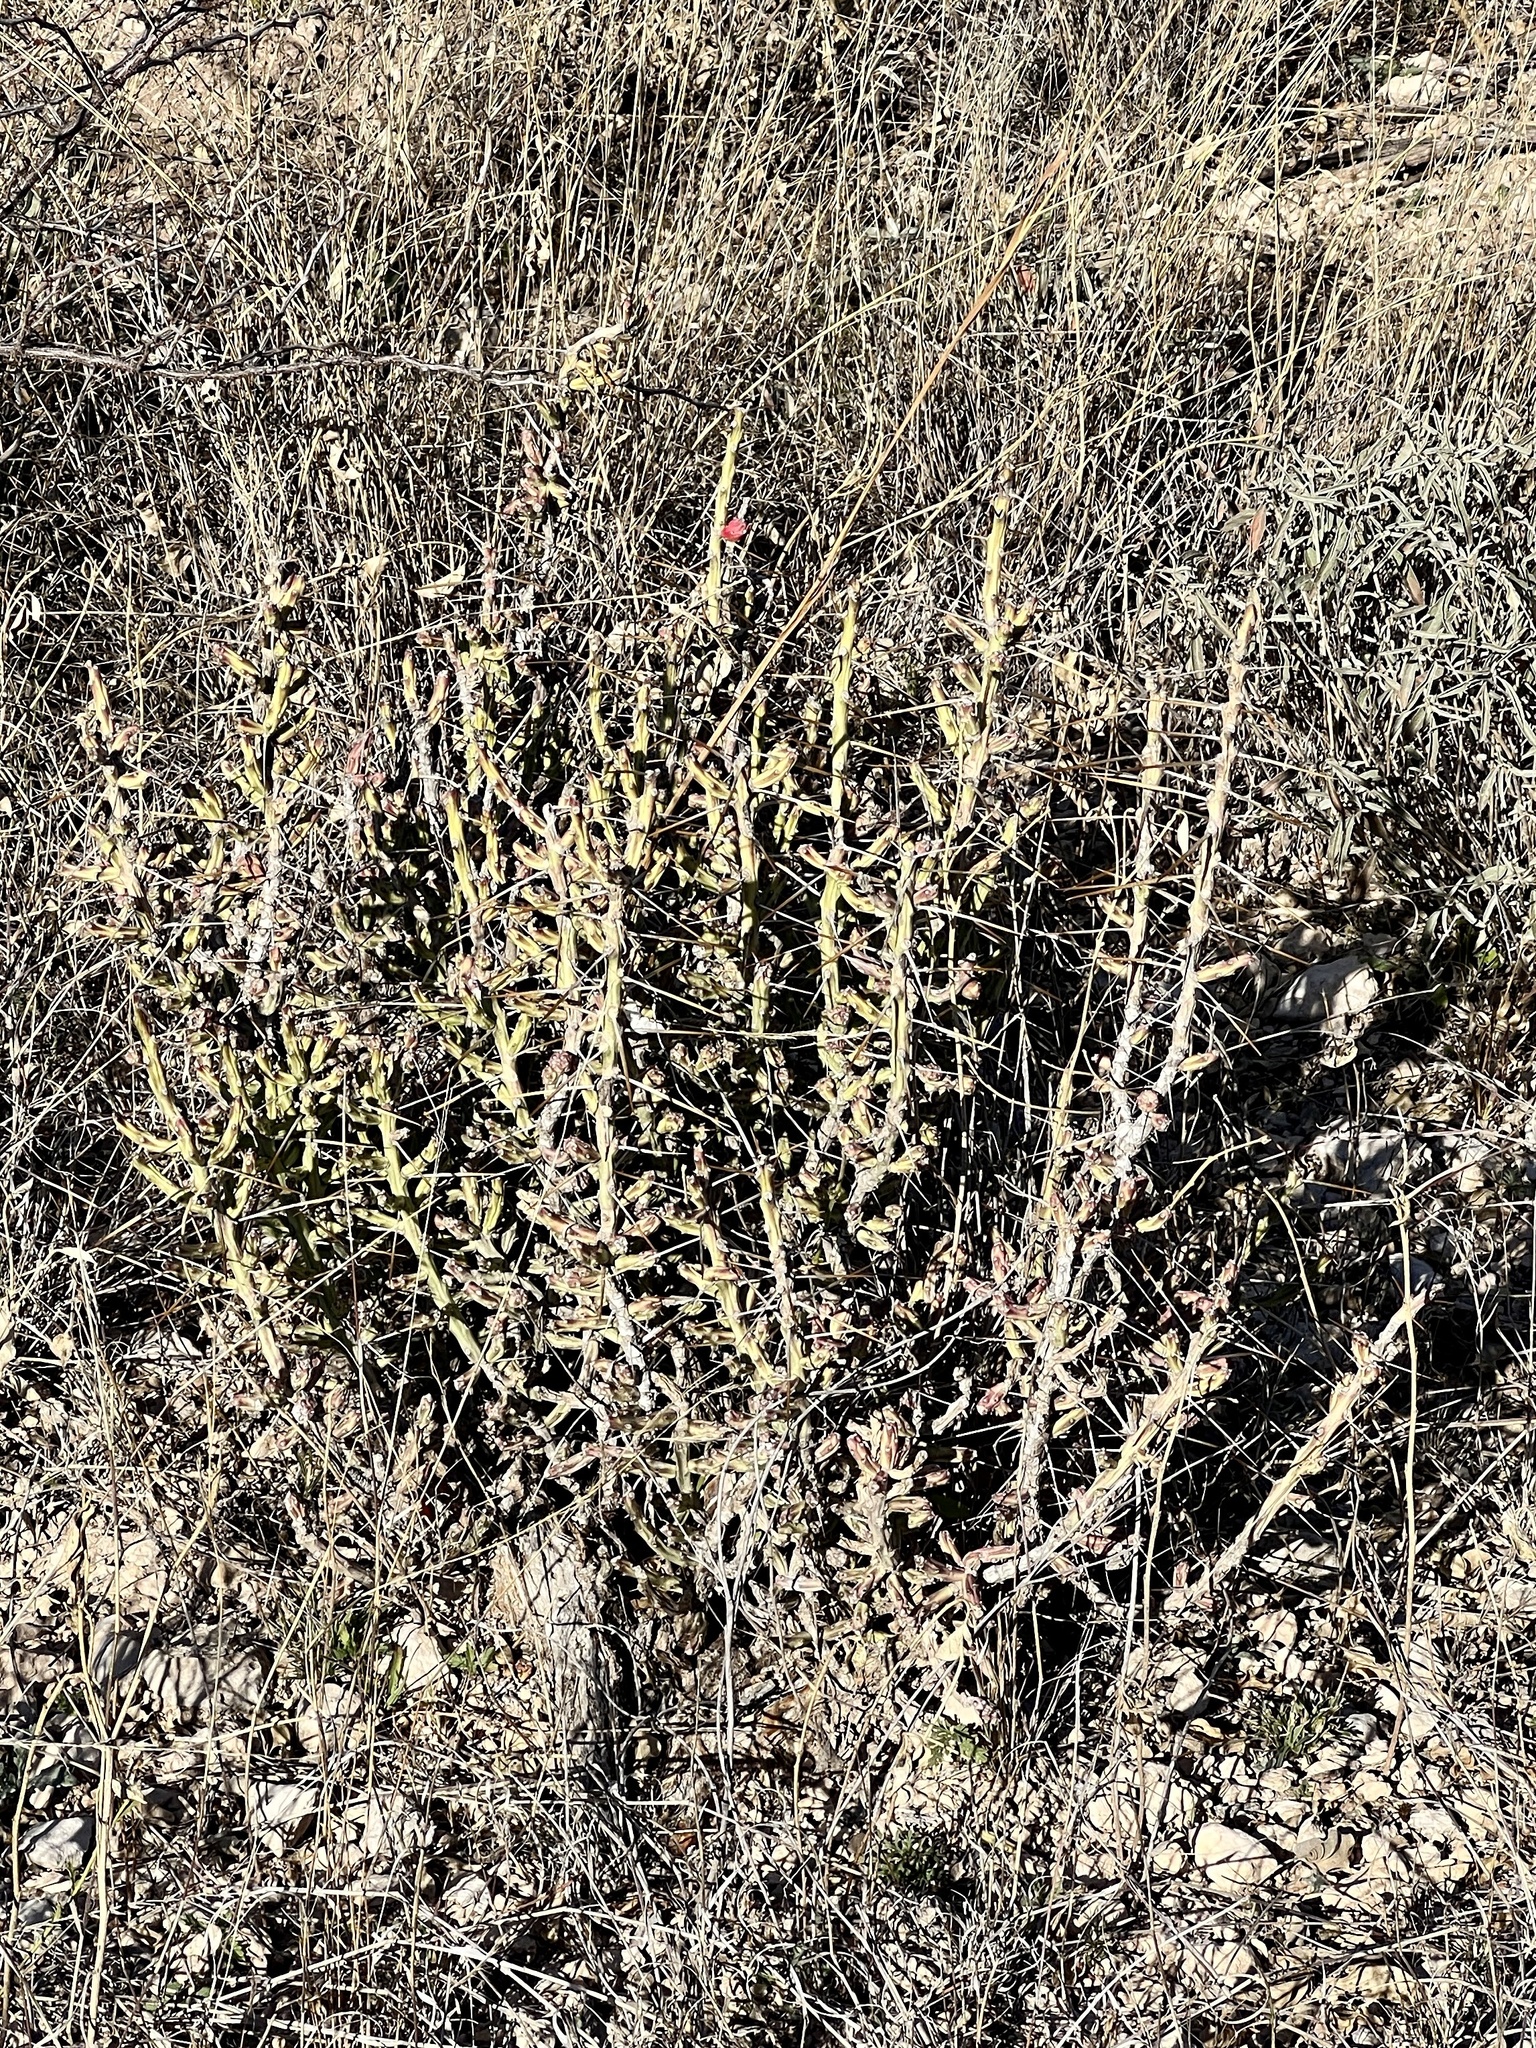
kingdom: Plantae
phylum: Tracheophyta
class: Magnoliopsida
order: Caryophyllales
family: Cactaceae
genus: Cylindropuntia
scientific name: Cylindropuntia leptocaulis
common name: Christmas cactus
